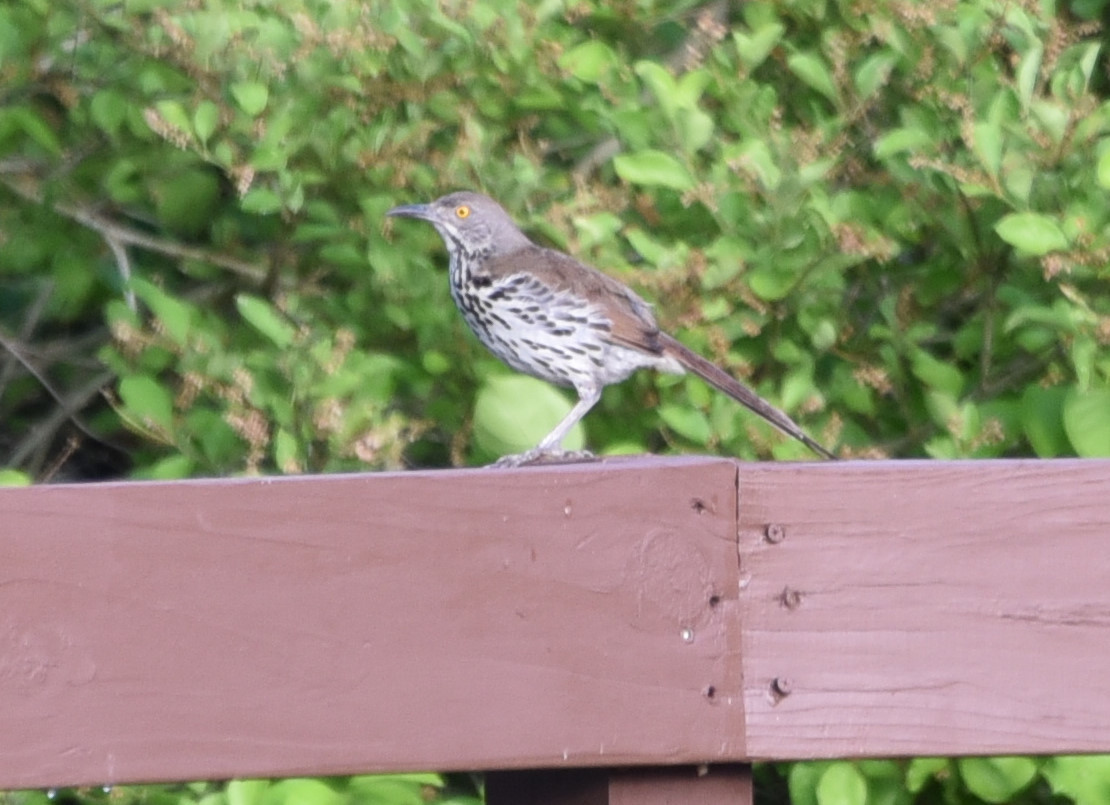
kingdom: Animalia
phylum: Chordata
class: Aves
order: Passeriformes
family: Mimidae
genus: Toxostoma
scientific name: Toxostoma longirostre
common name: Long-billed thrasher
